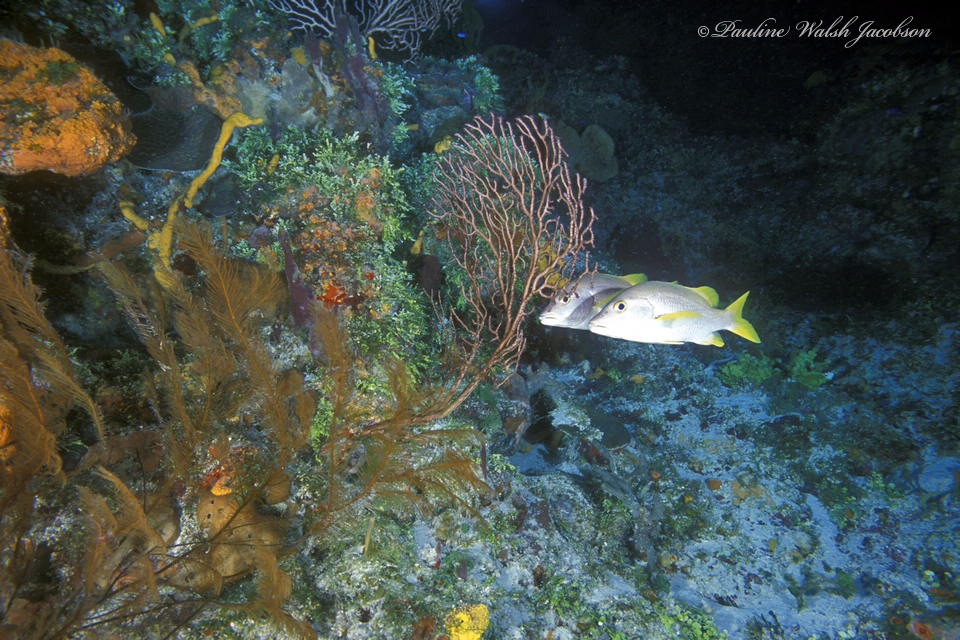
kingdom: Animalia
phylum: Cnidaria
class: Anthozoa
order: Antipatharia
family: Myriopathidae
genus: Plumapathes
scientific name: Plumapathes pennacea
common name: Feather black coral
